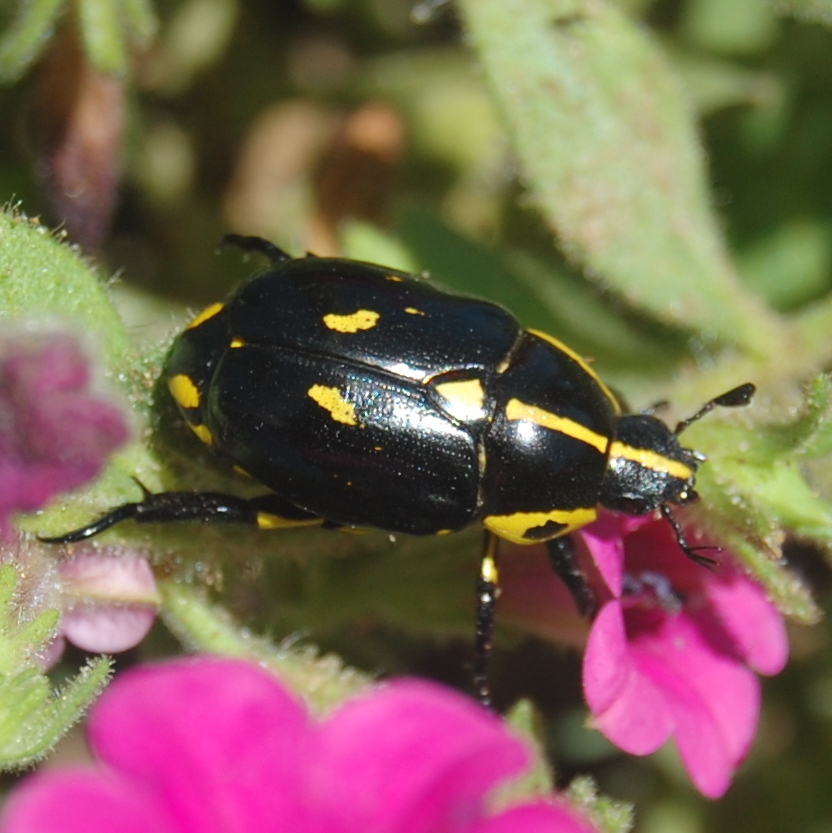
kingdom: Animalia
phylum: Arthropoda
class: Insecta
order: Coleoptera
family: Scarabaeidae
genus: Rutela
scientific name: Rutela lineola
